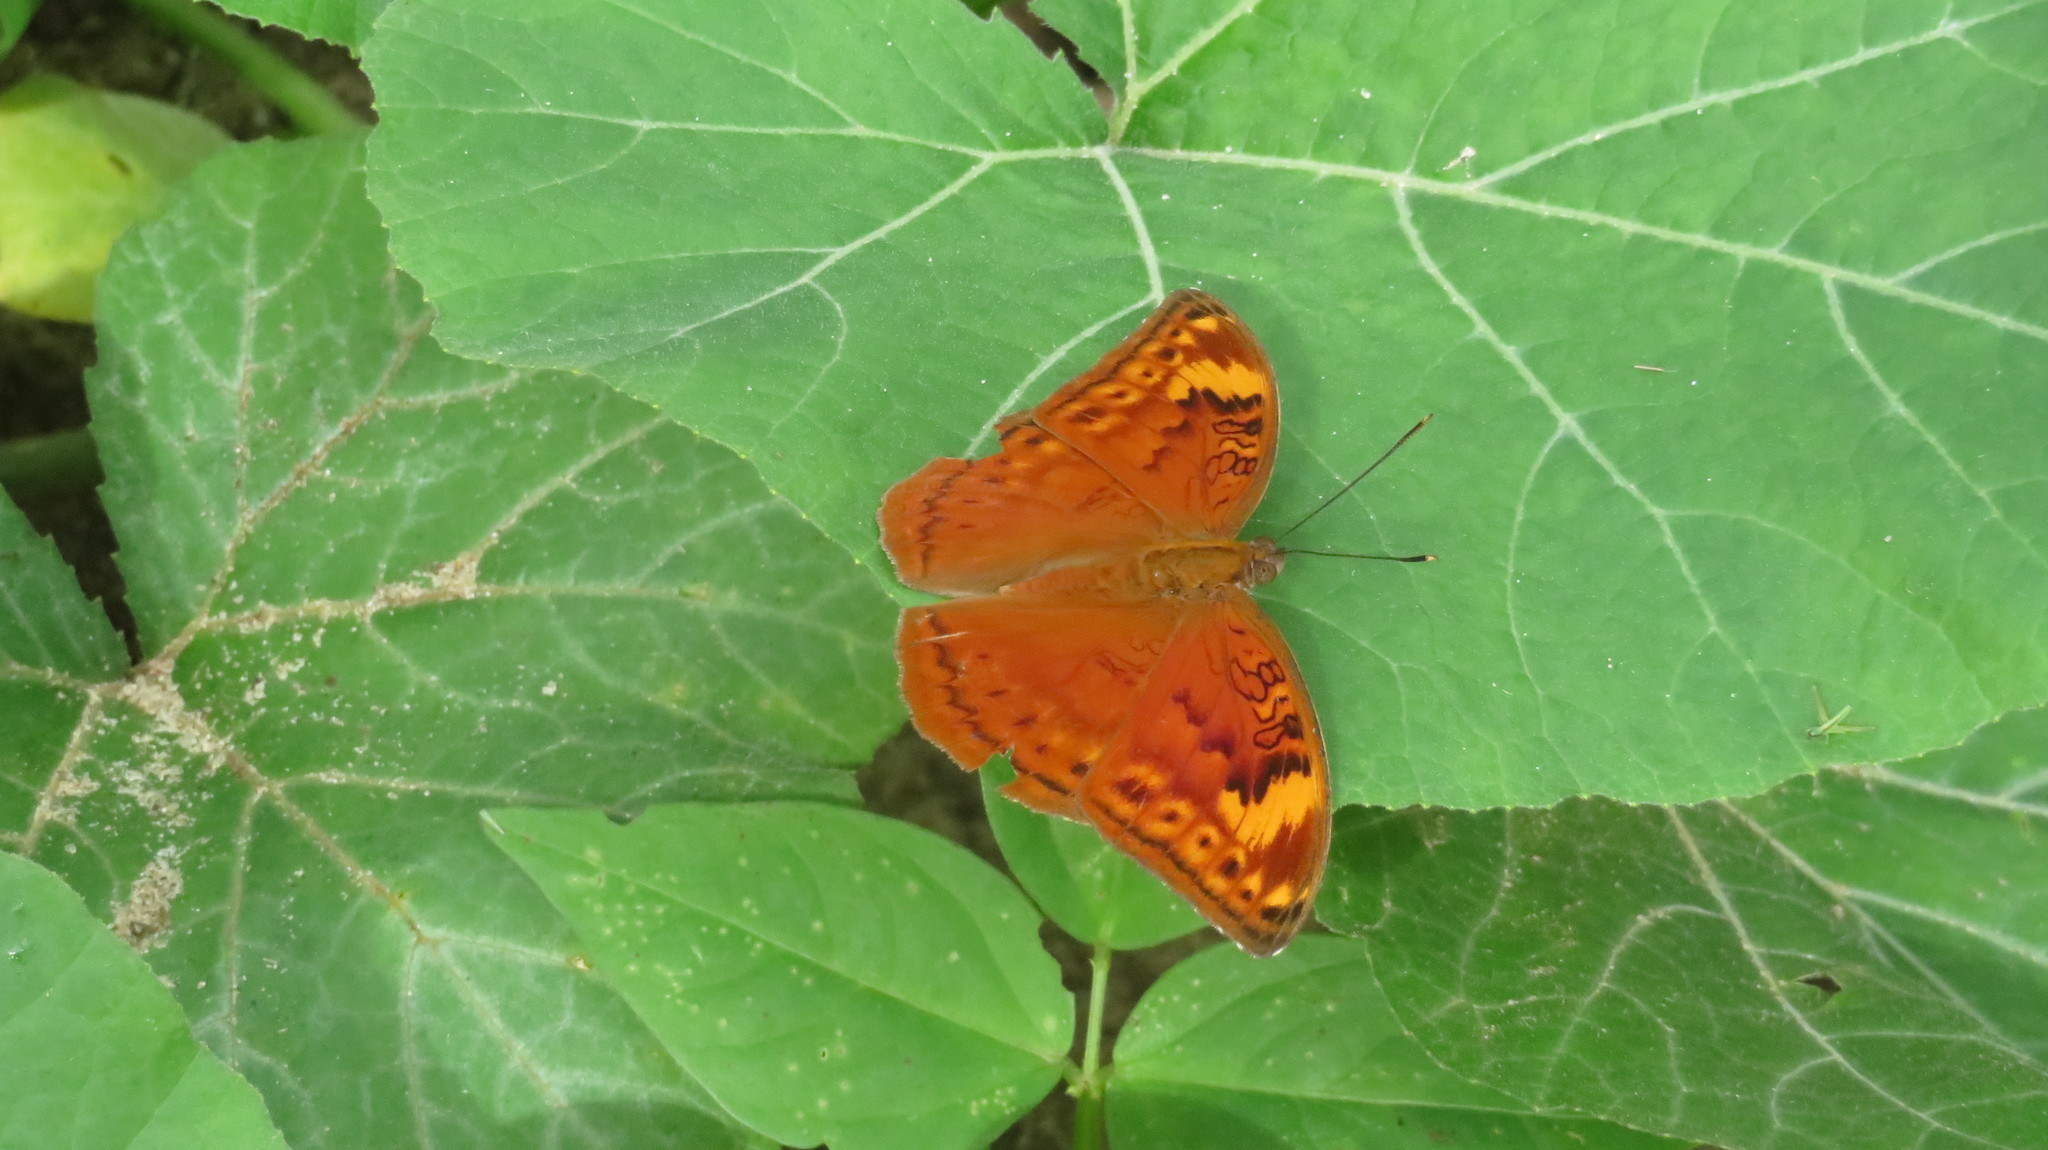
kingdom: Animalia
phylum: Arthropoda
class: Insecta
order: Lepidoptera
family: Nymphalidae
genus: Bebearia
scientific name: Bebearia orientis
